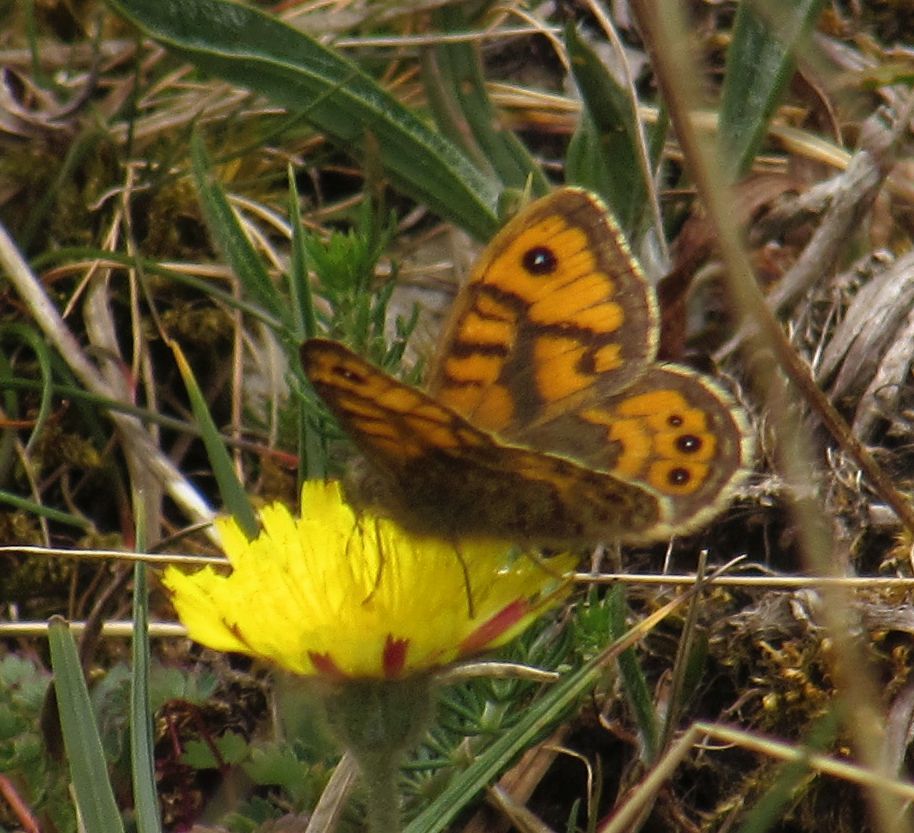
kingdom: Animalia
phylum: Arthropoda
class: Insecta
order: Lepidoptera
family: Nymphalidae
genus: Pararge
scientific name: Pararge Lasiommata megera
